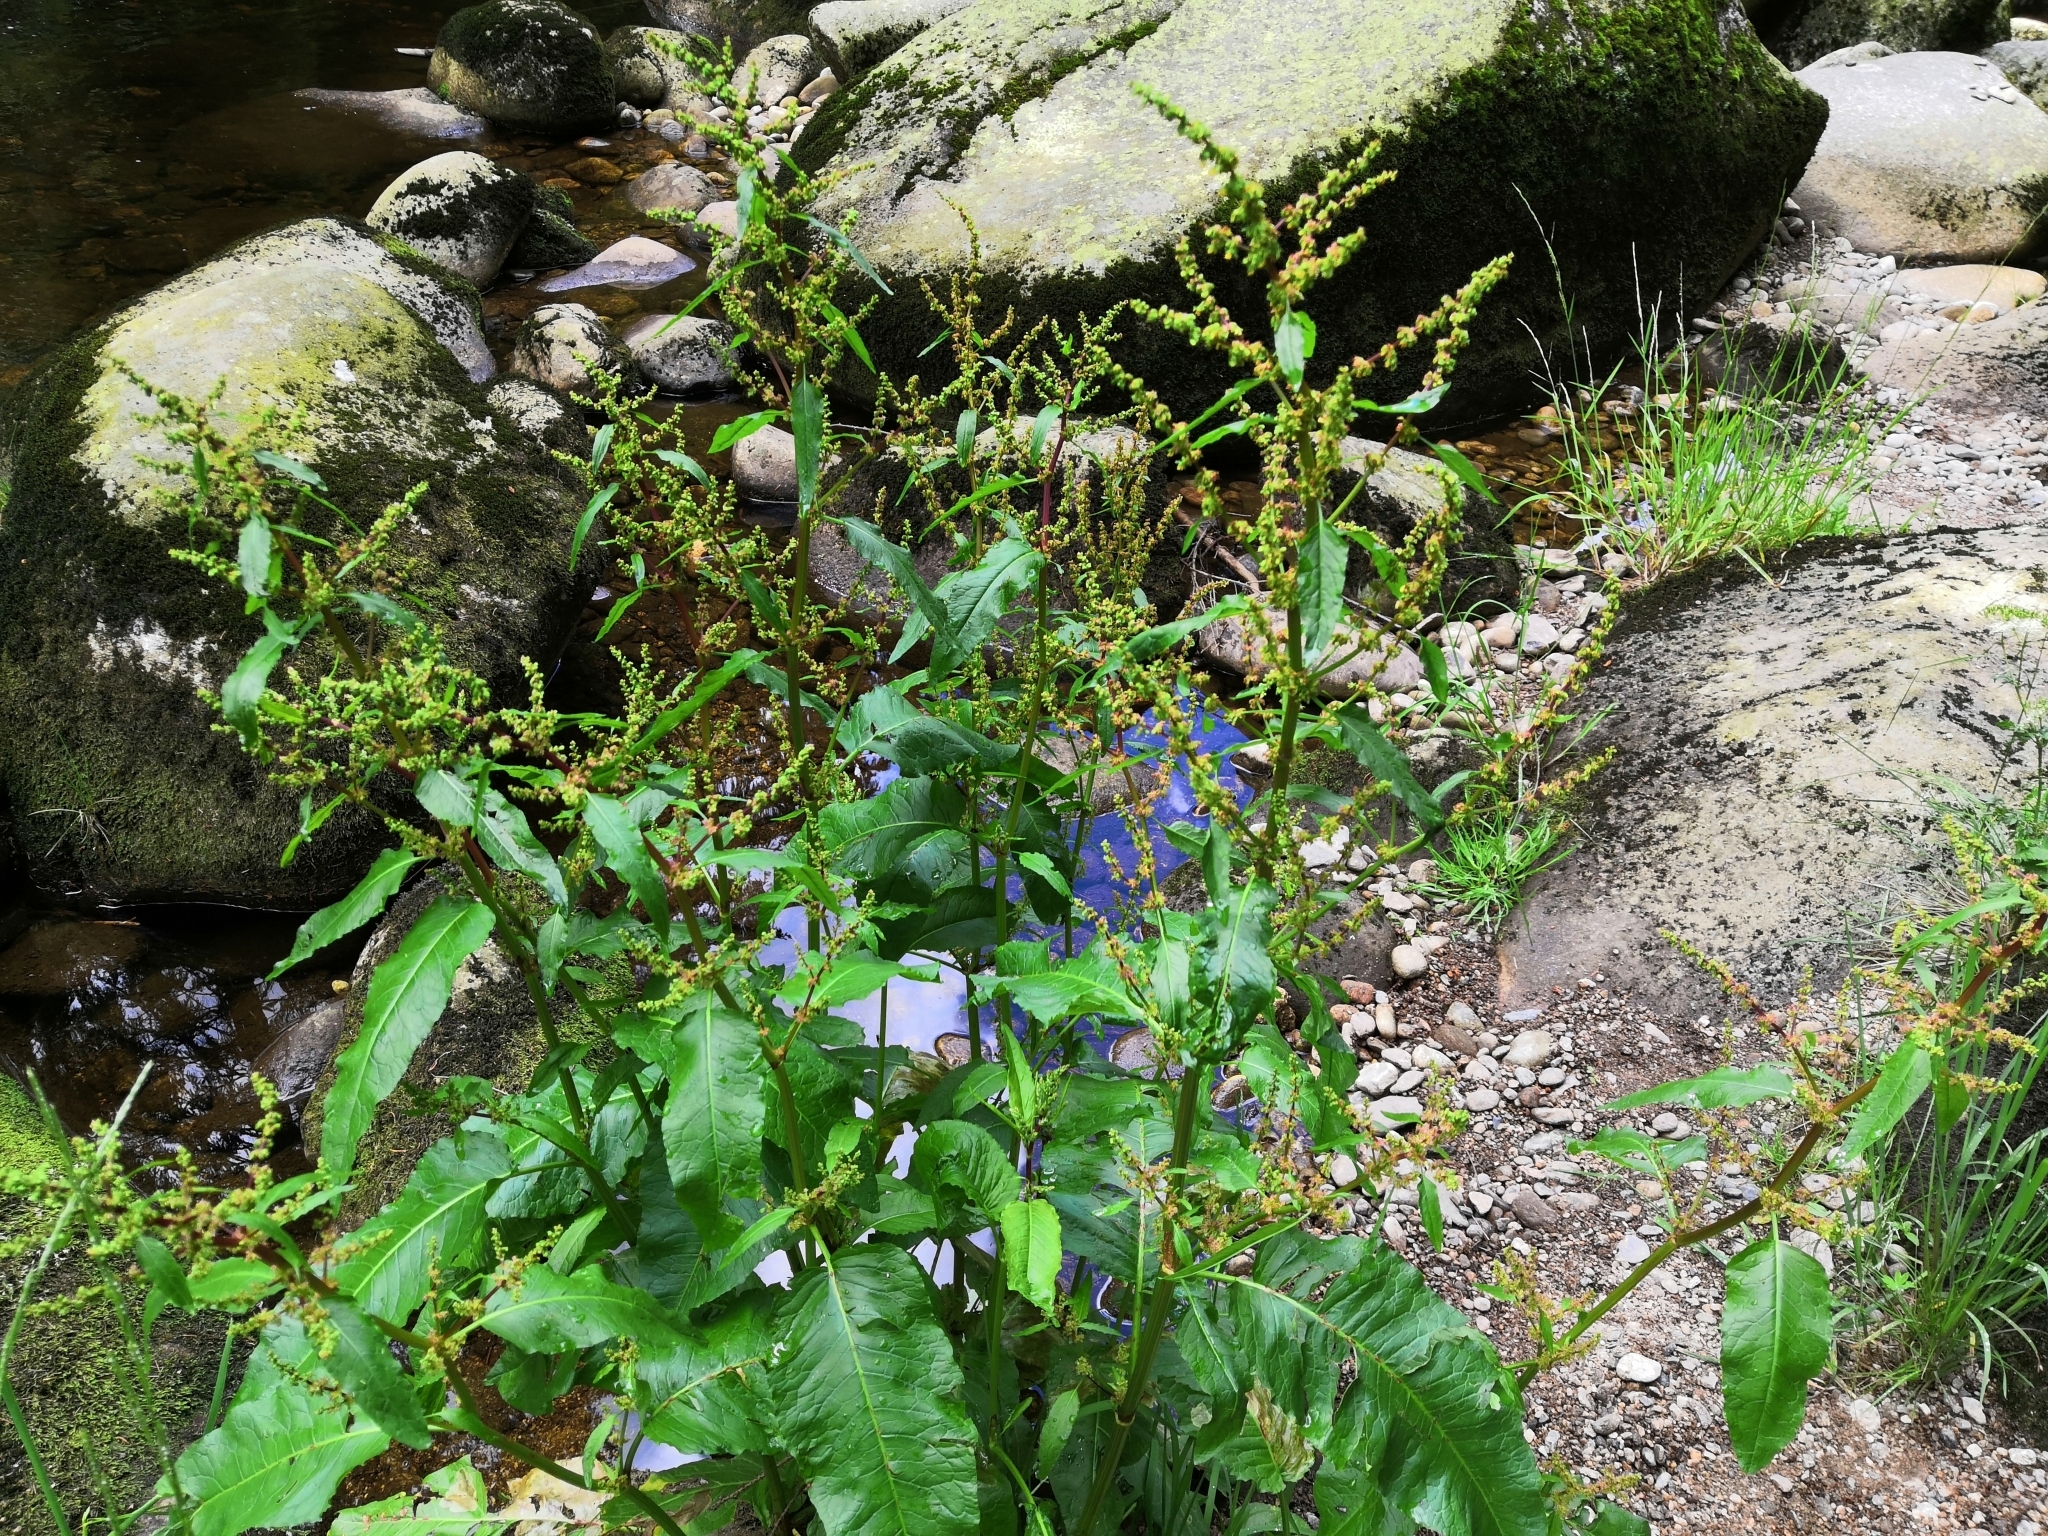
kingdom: Plantae
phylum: Tracheophyta
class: Magnoliopsida
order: Caryophyllales
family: Polygonaceae
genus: Rumex
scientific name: Rumex obtusifolius
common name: Bitter dock
